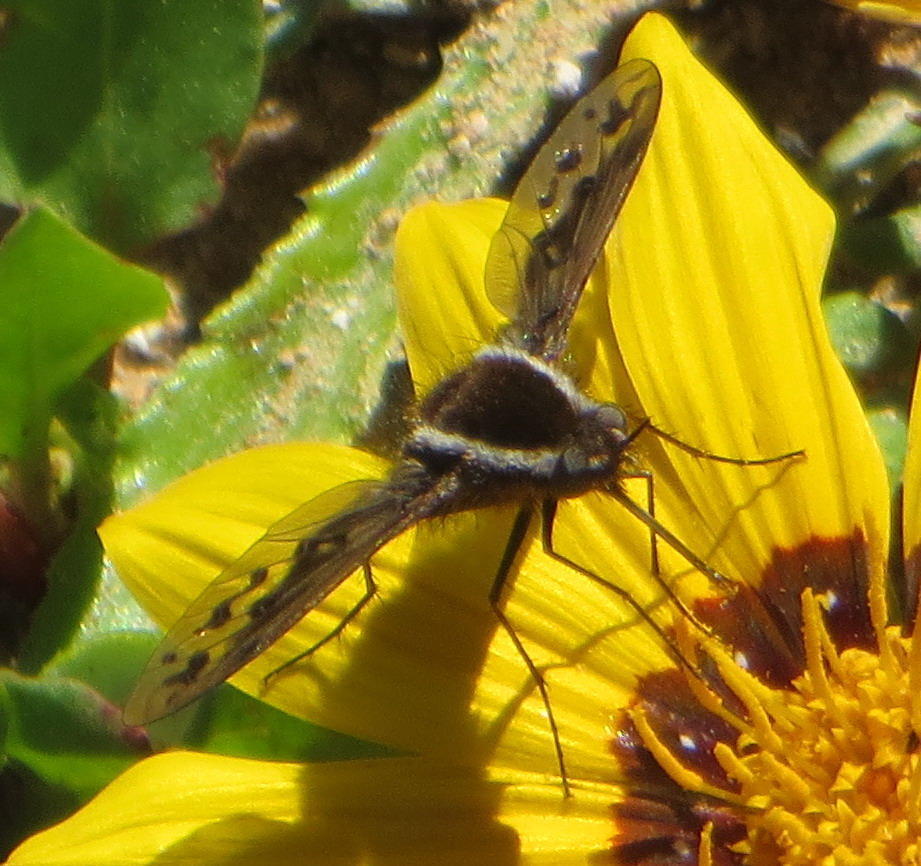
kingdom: Animalia
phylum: Arthropoda
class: Insecta
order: Diptera
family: Bombyliidae
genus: Triplasius
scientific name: Triplasius bivittatus
